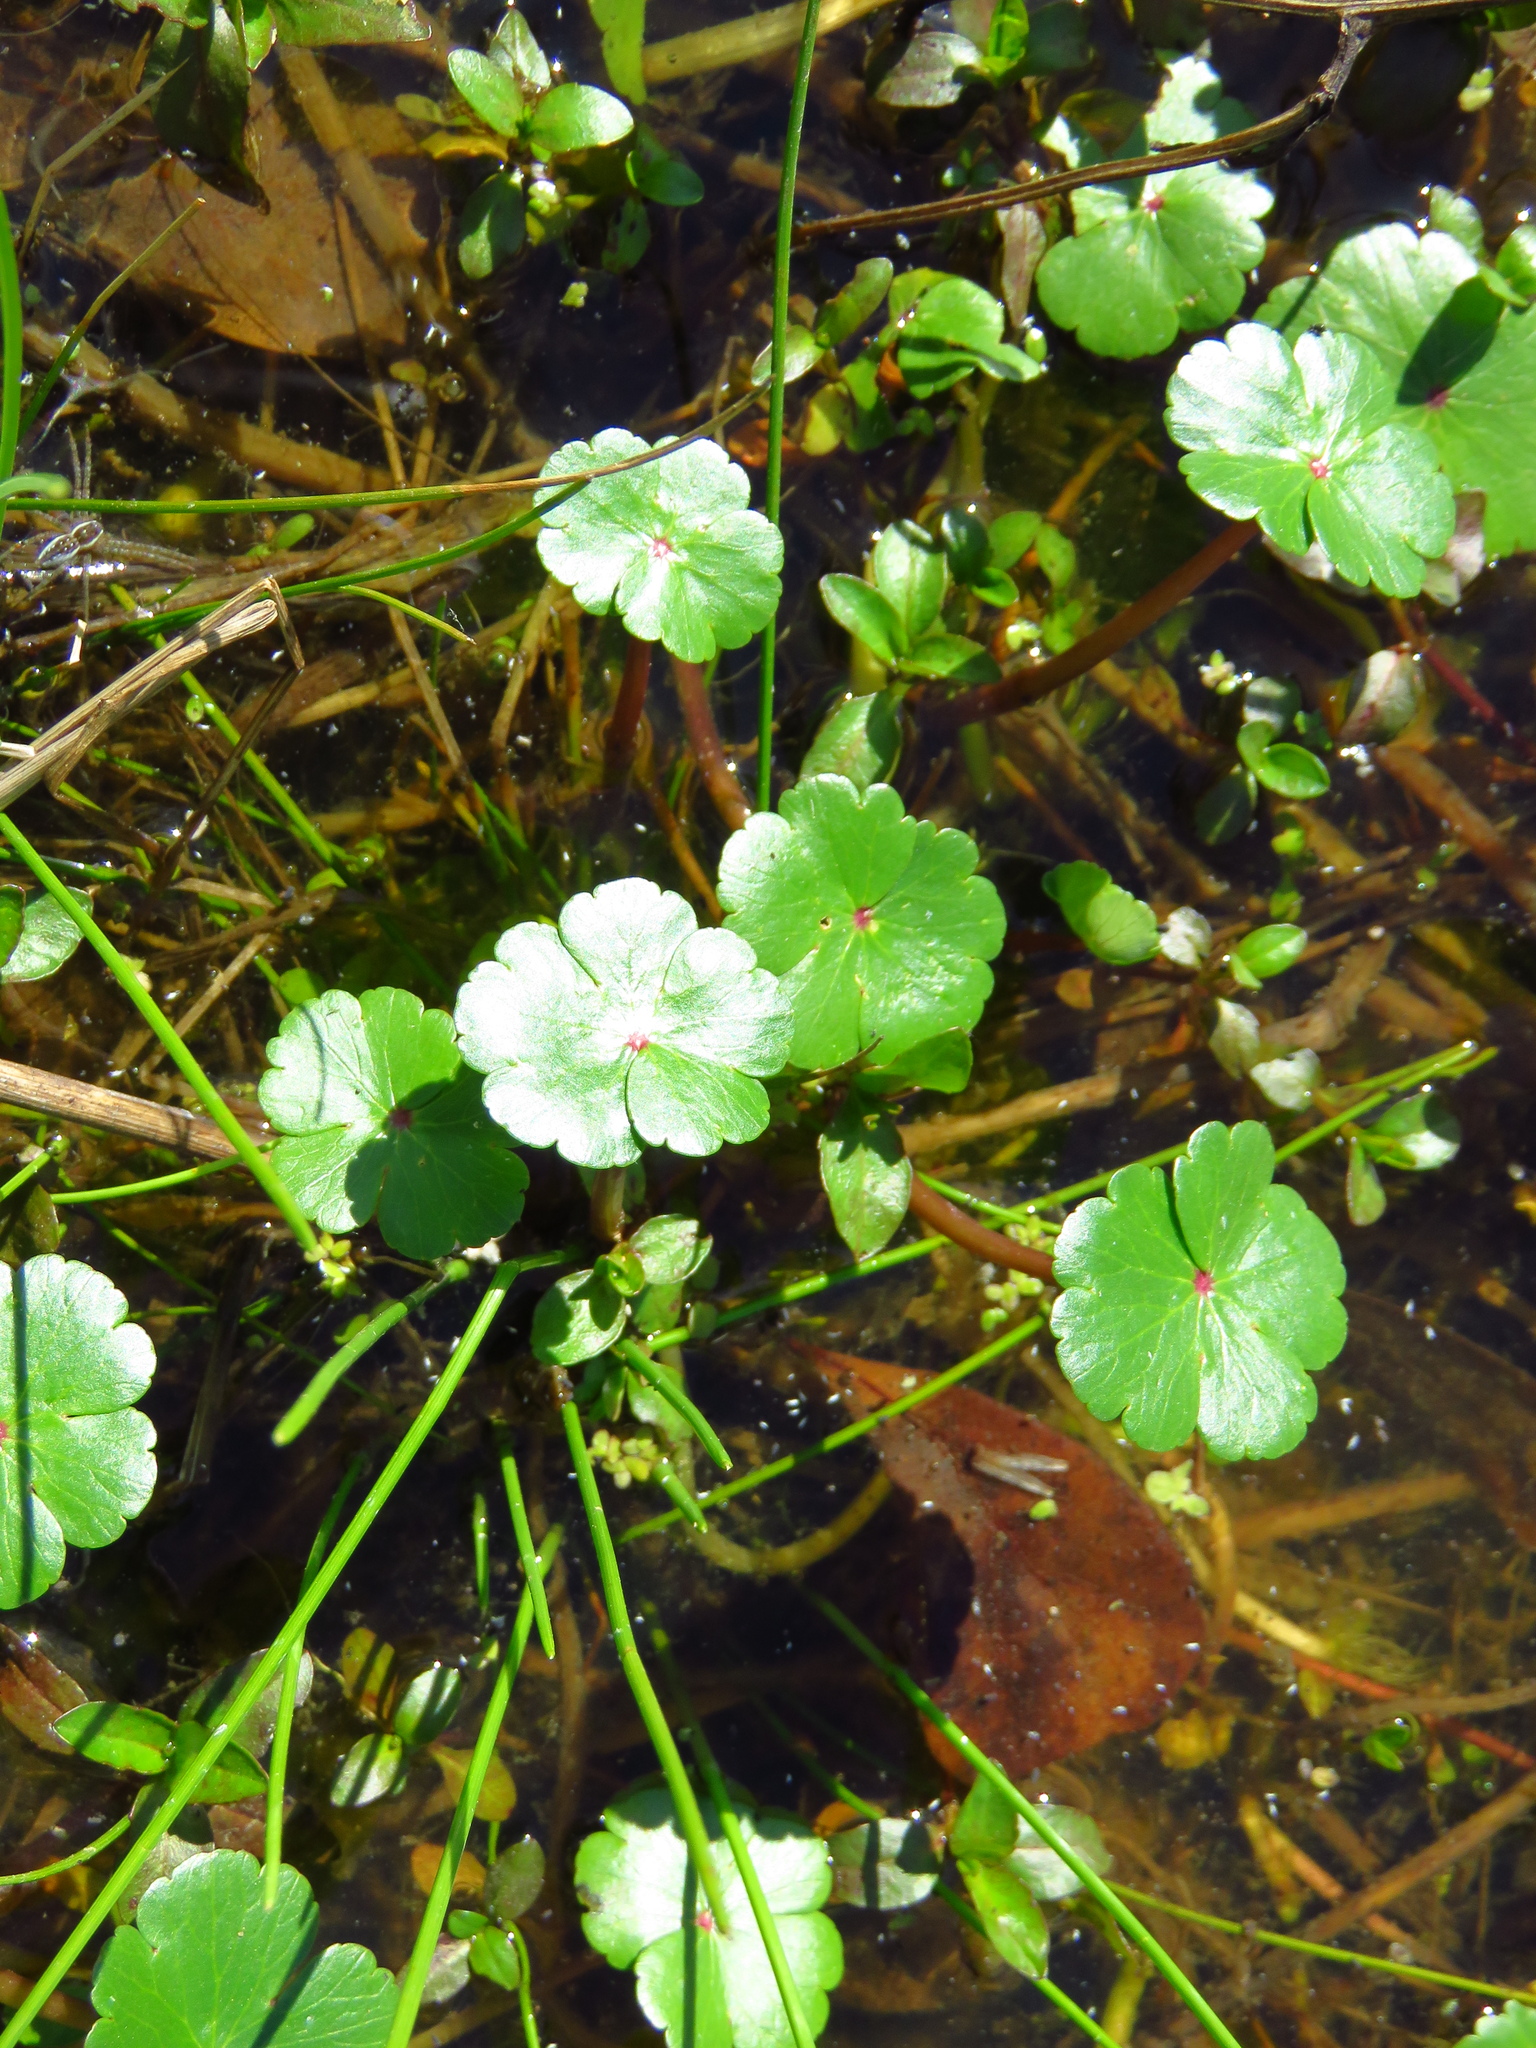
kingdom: Plantae
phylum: Tracheophyta
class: Magnoliopsida
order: Apiales
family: Araliaceae
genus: Hydrocotyle
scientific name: Hydrocotyle ranunculoides
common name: Floating pennywort
